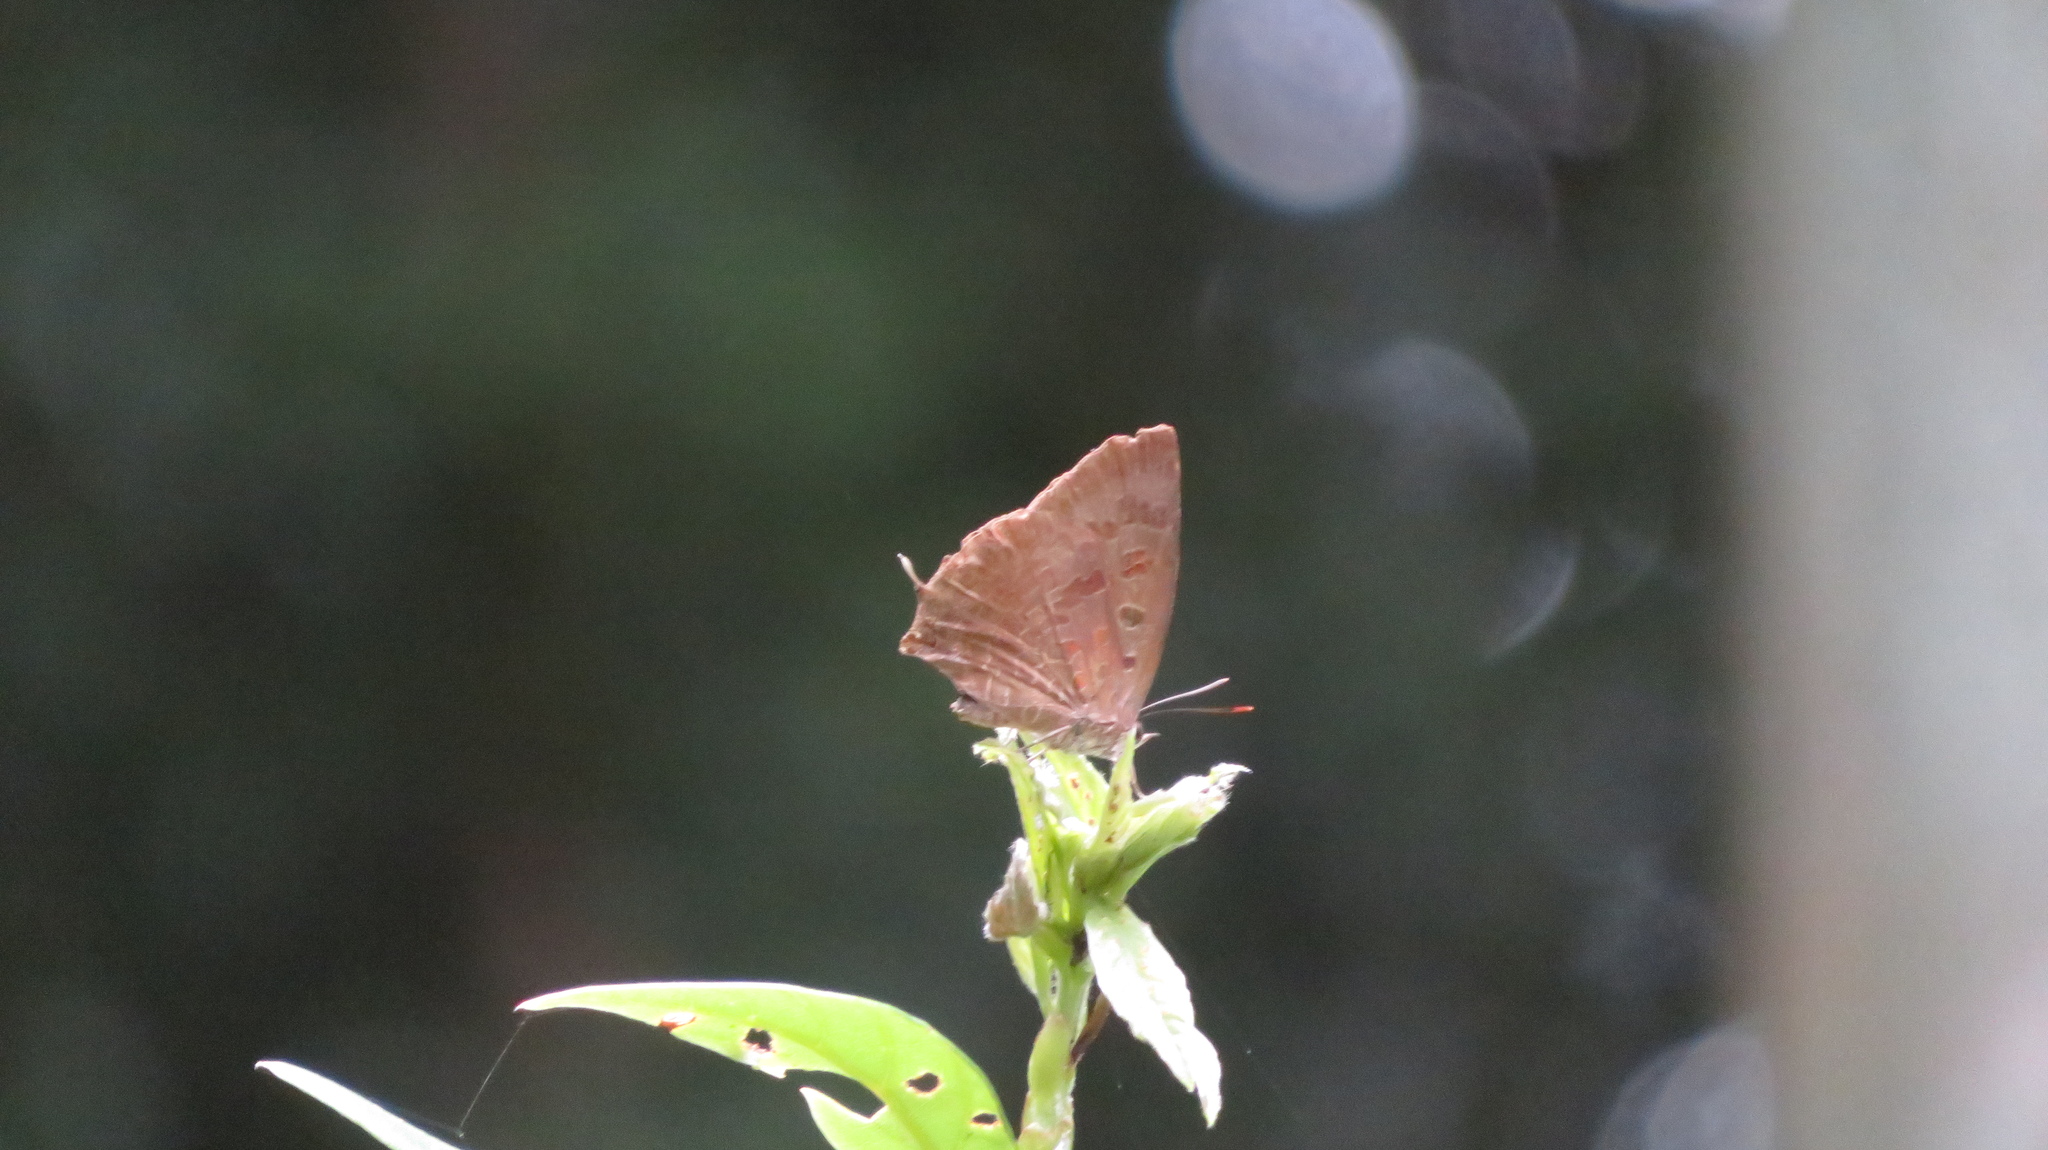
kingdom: Animalia
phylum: Arthropoda
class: Insecta
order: Lepidoptera
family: Lycaenidae
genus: Arhopala
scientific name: Arhopala bazalus
